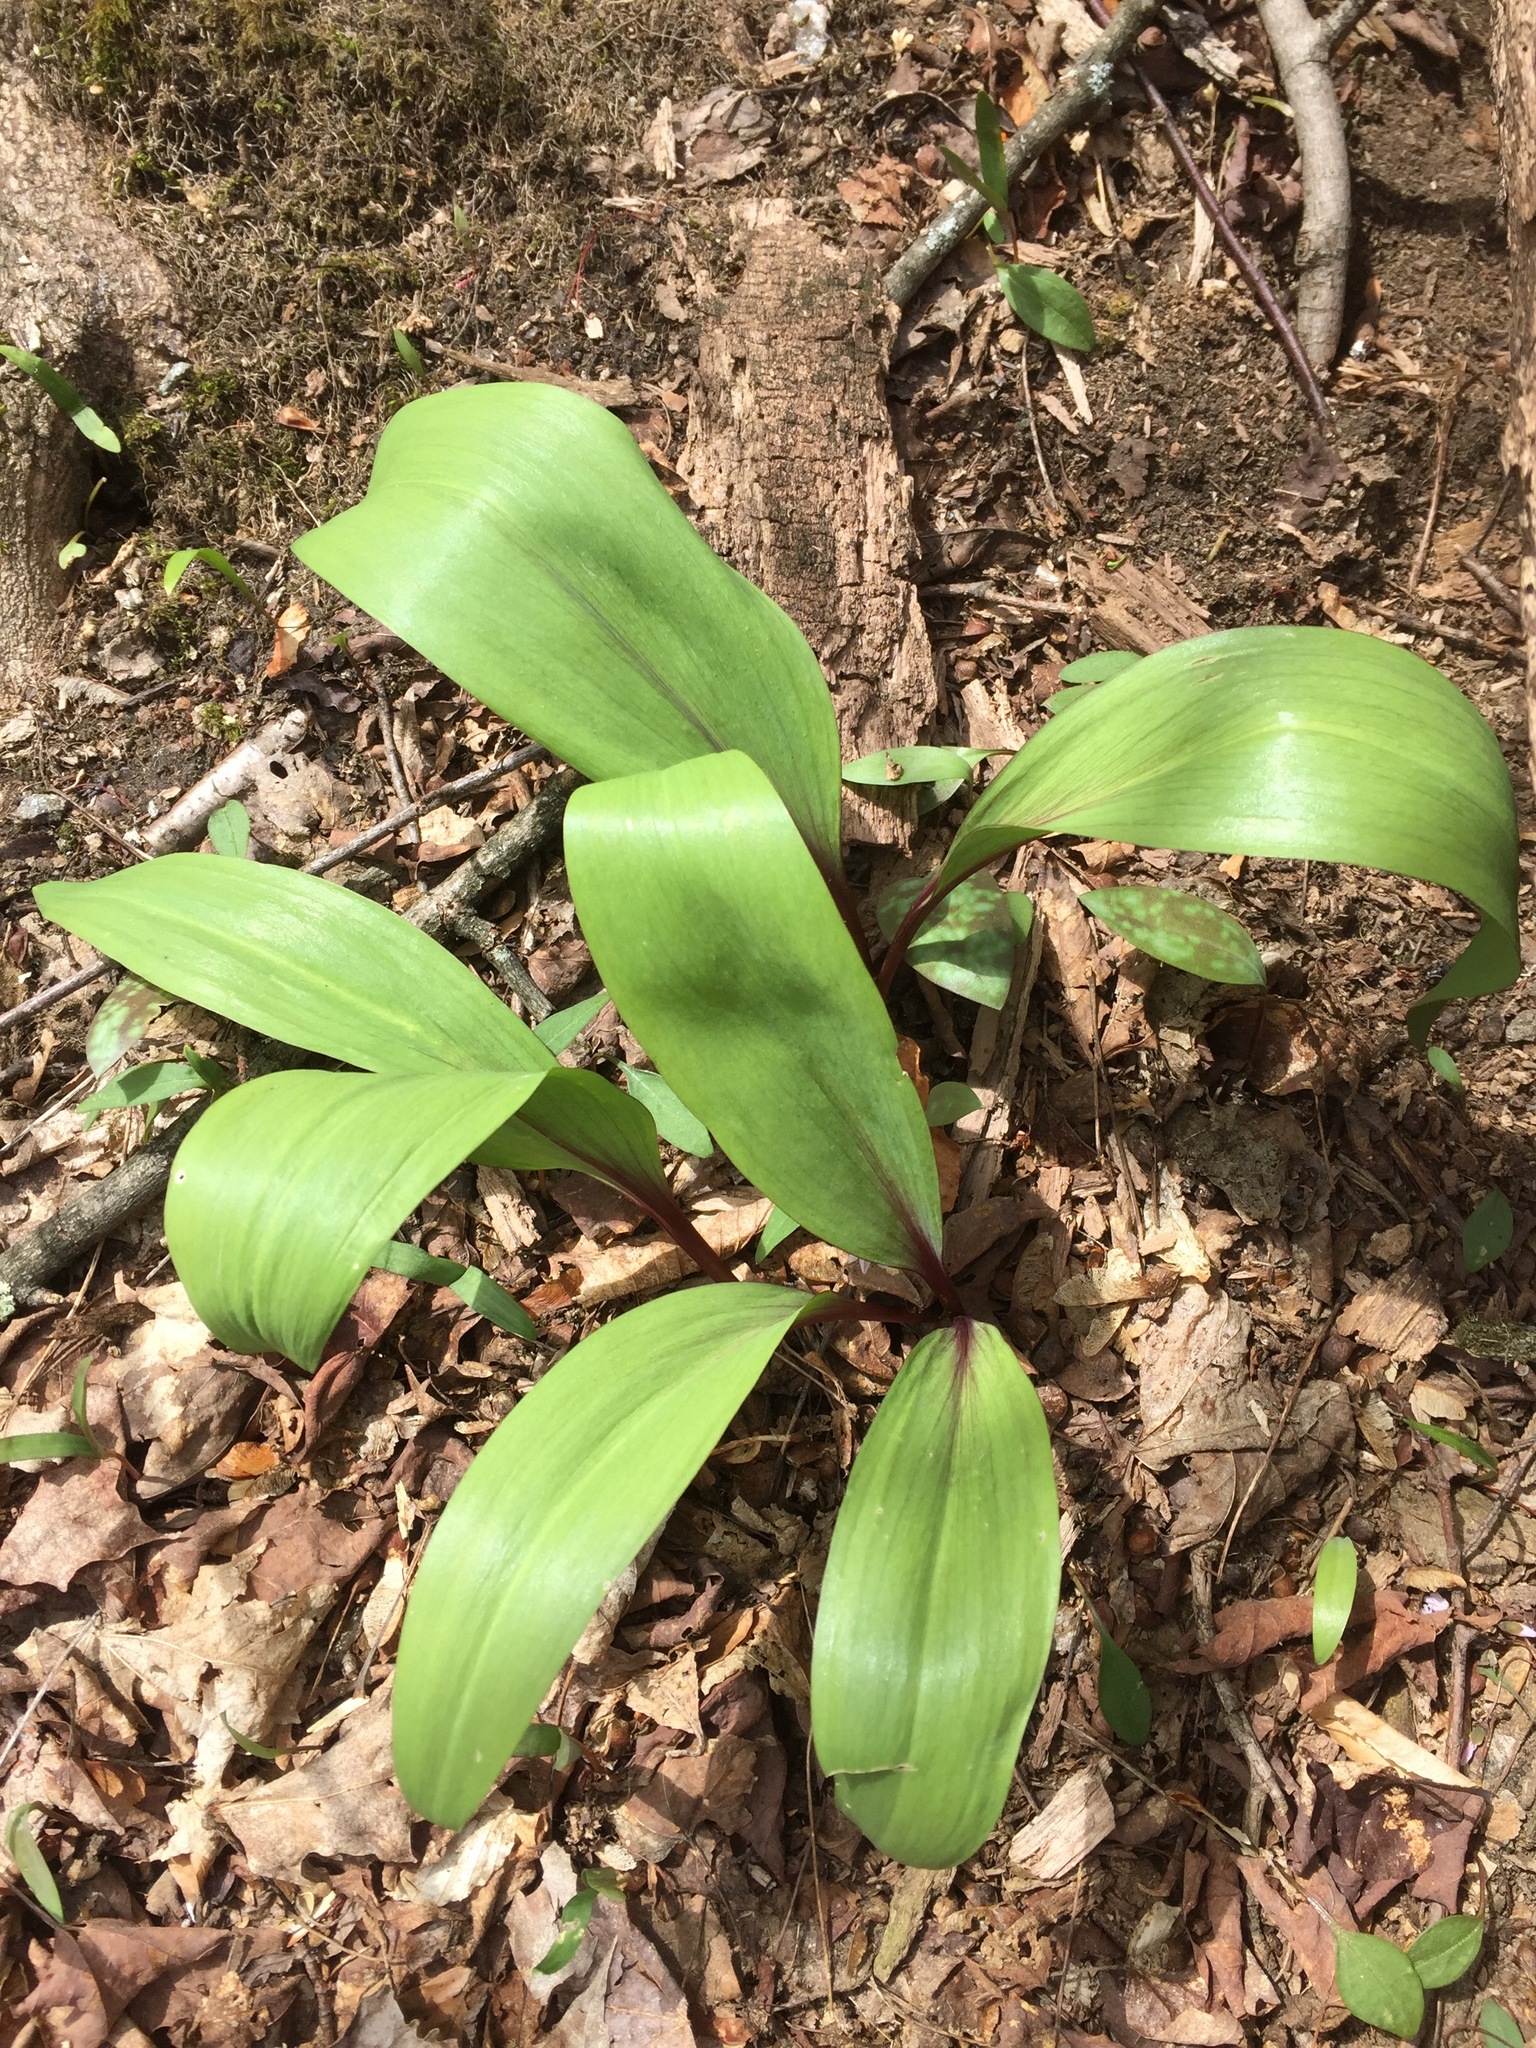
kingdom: Plantae
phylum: Tracheophyta
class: Liliopsida
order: Asparagales
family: Amaryllidaceae
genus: Allium
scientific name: Allium tricoccum
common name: Ramp
